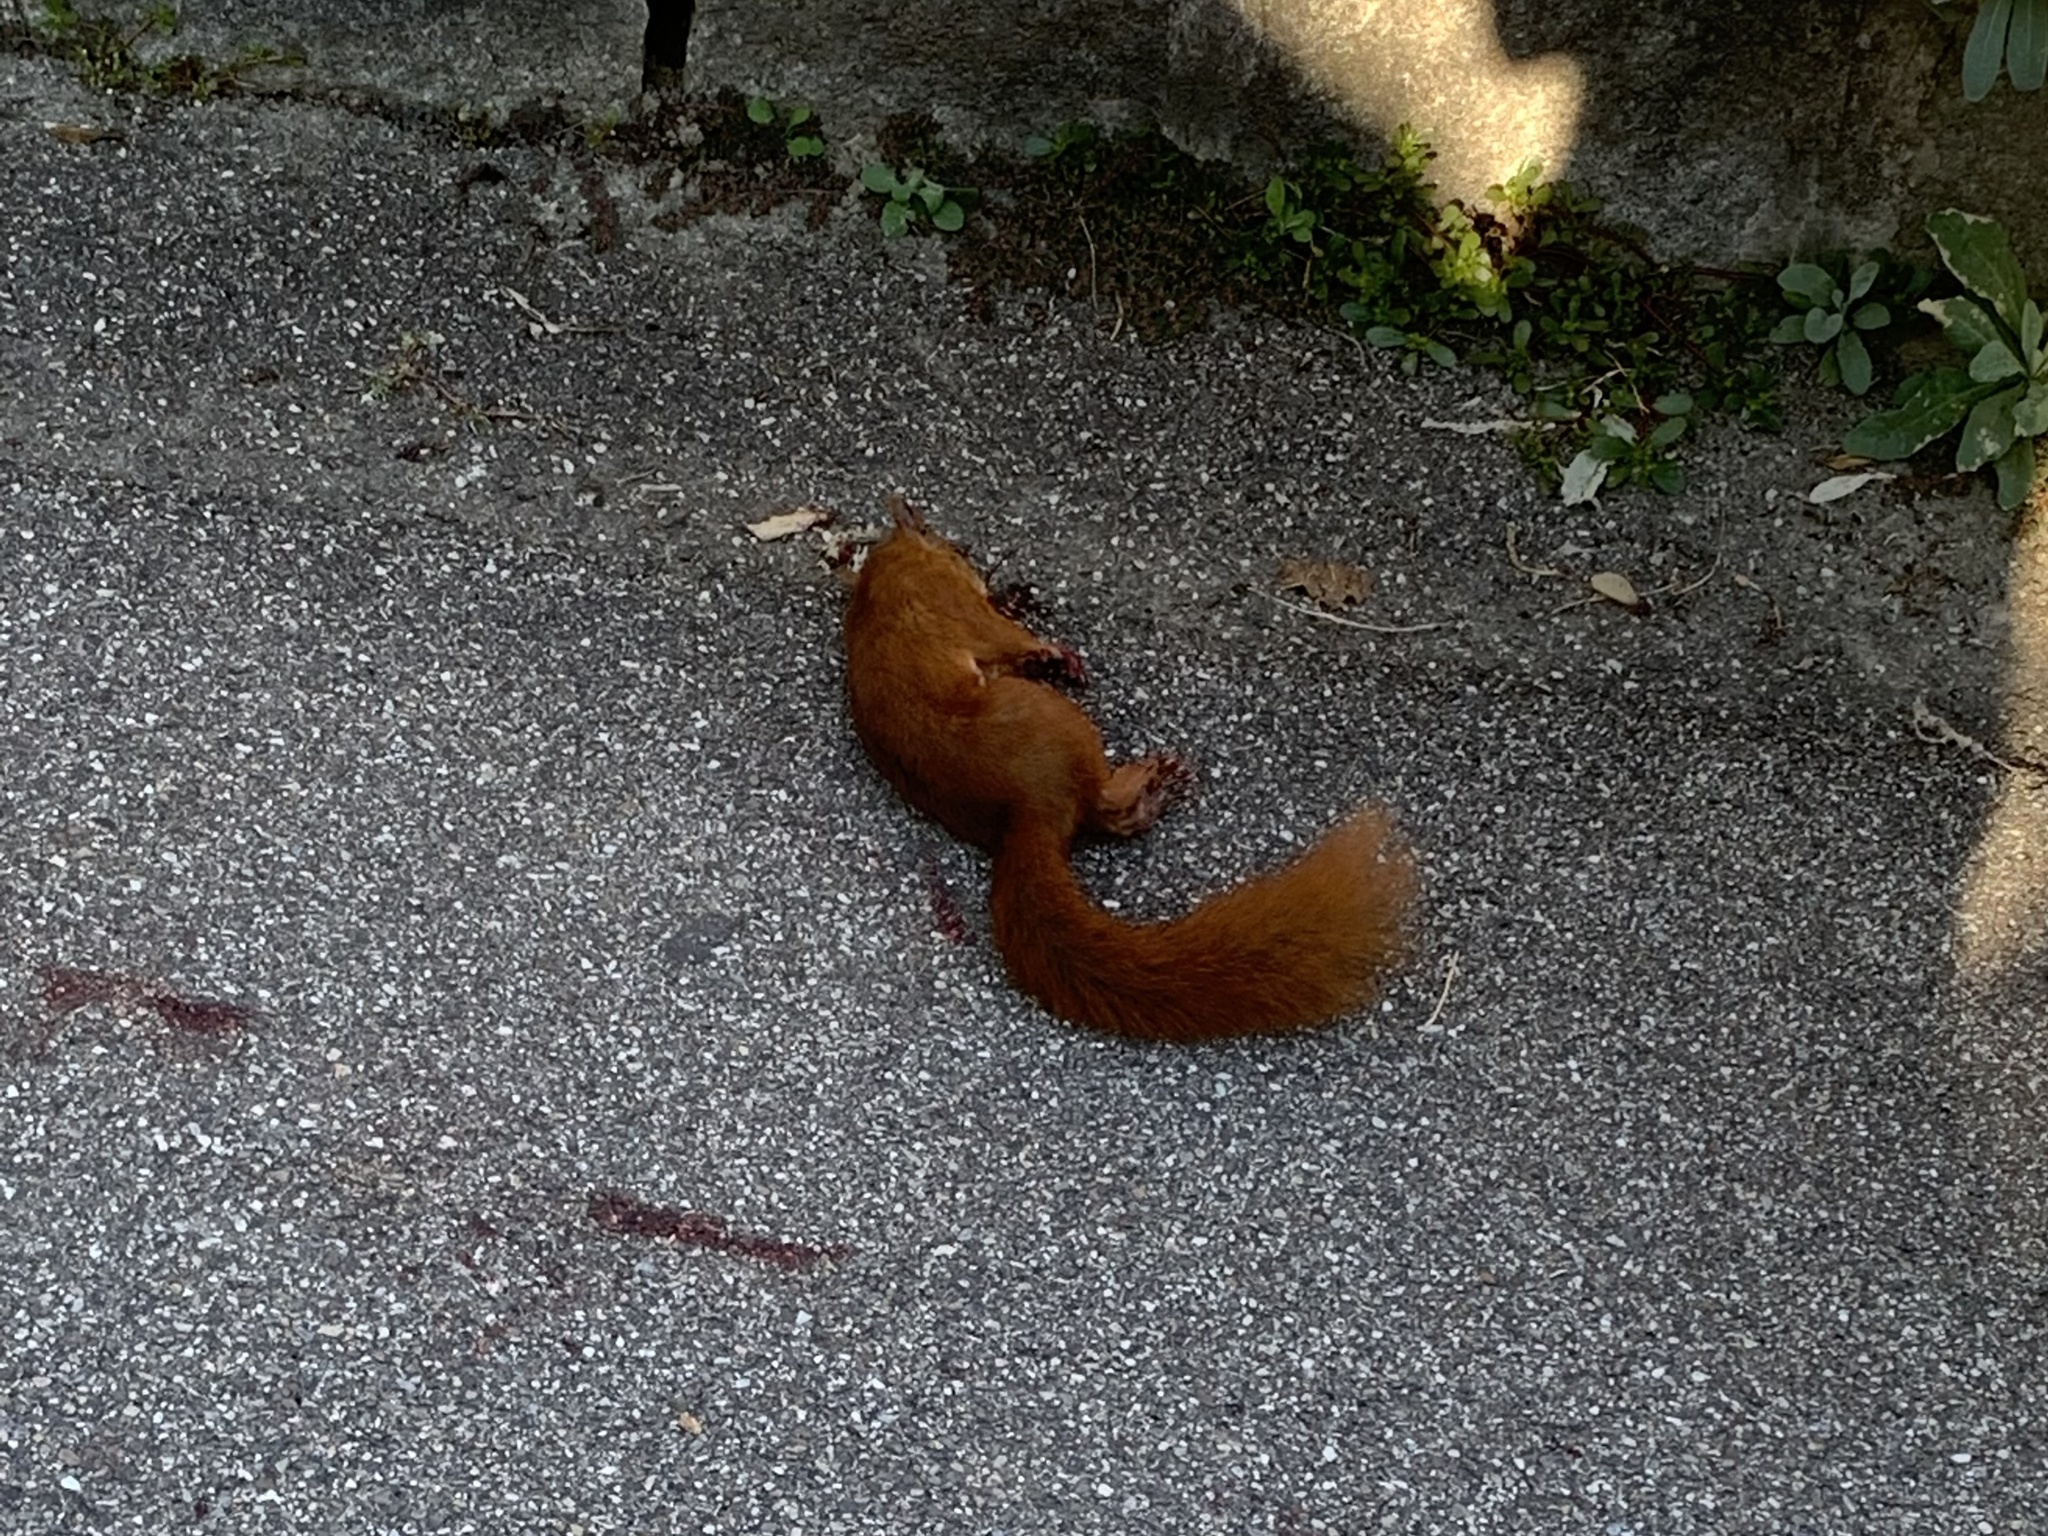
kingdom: Animalia
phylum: Chordata
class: Mammalia
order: Rodentia
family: Sciuridae
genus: Sciurus
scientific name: Sciurus vulgaris
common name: Eurasian red squirrel
